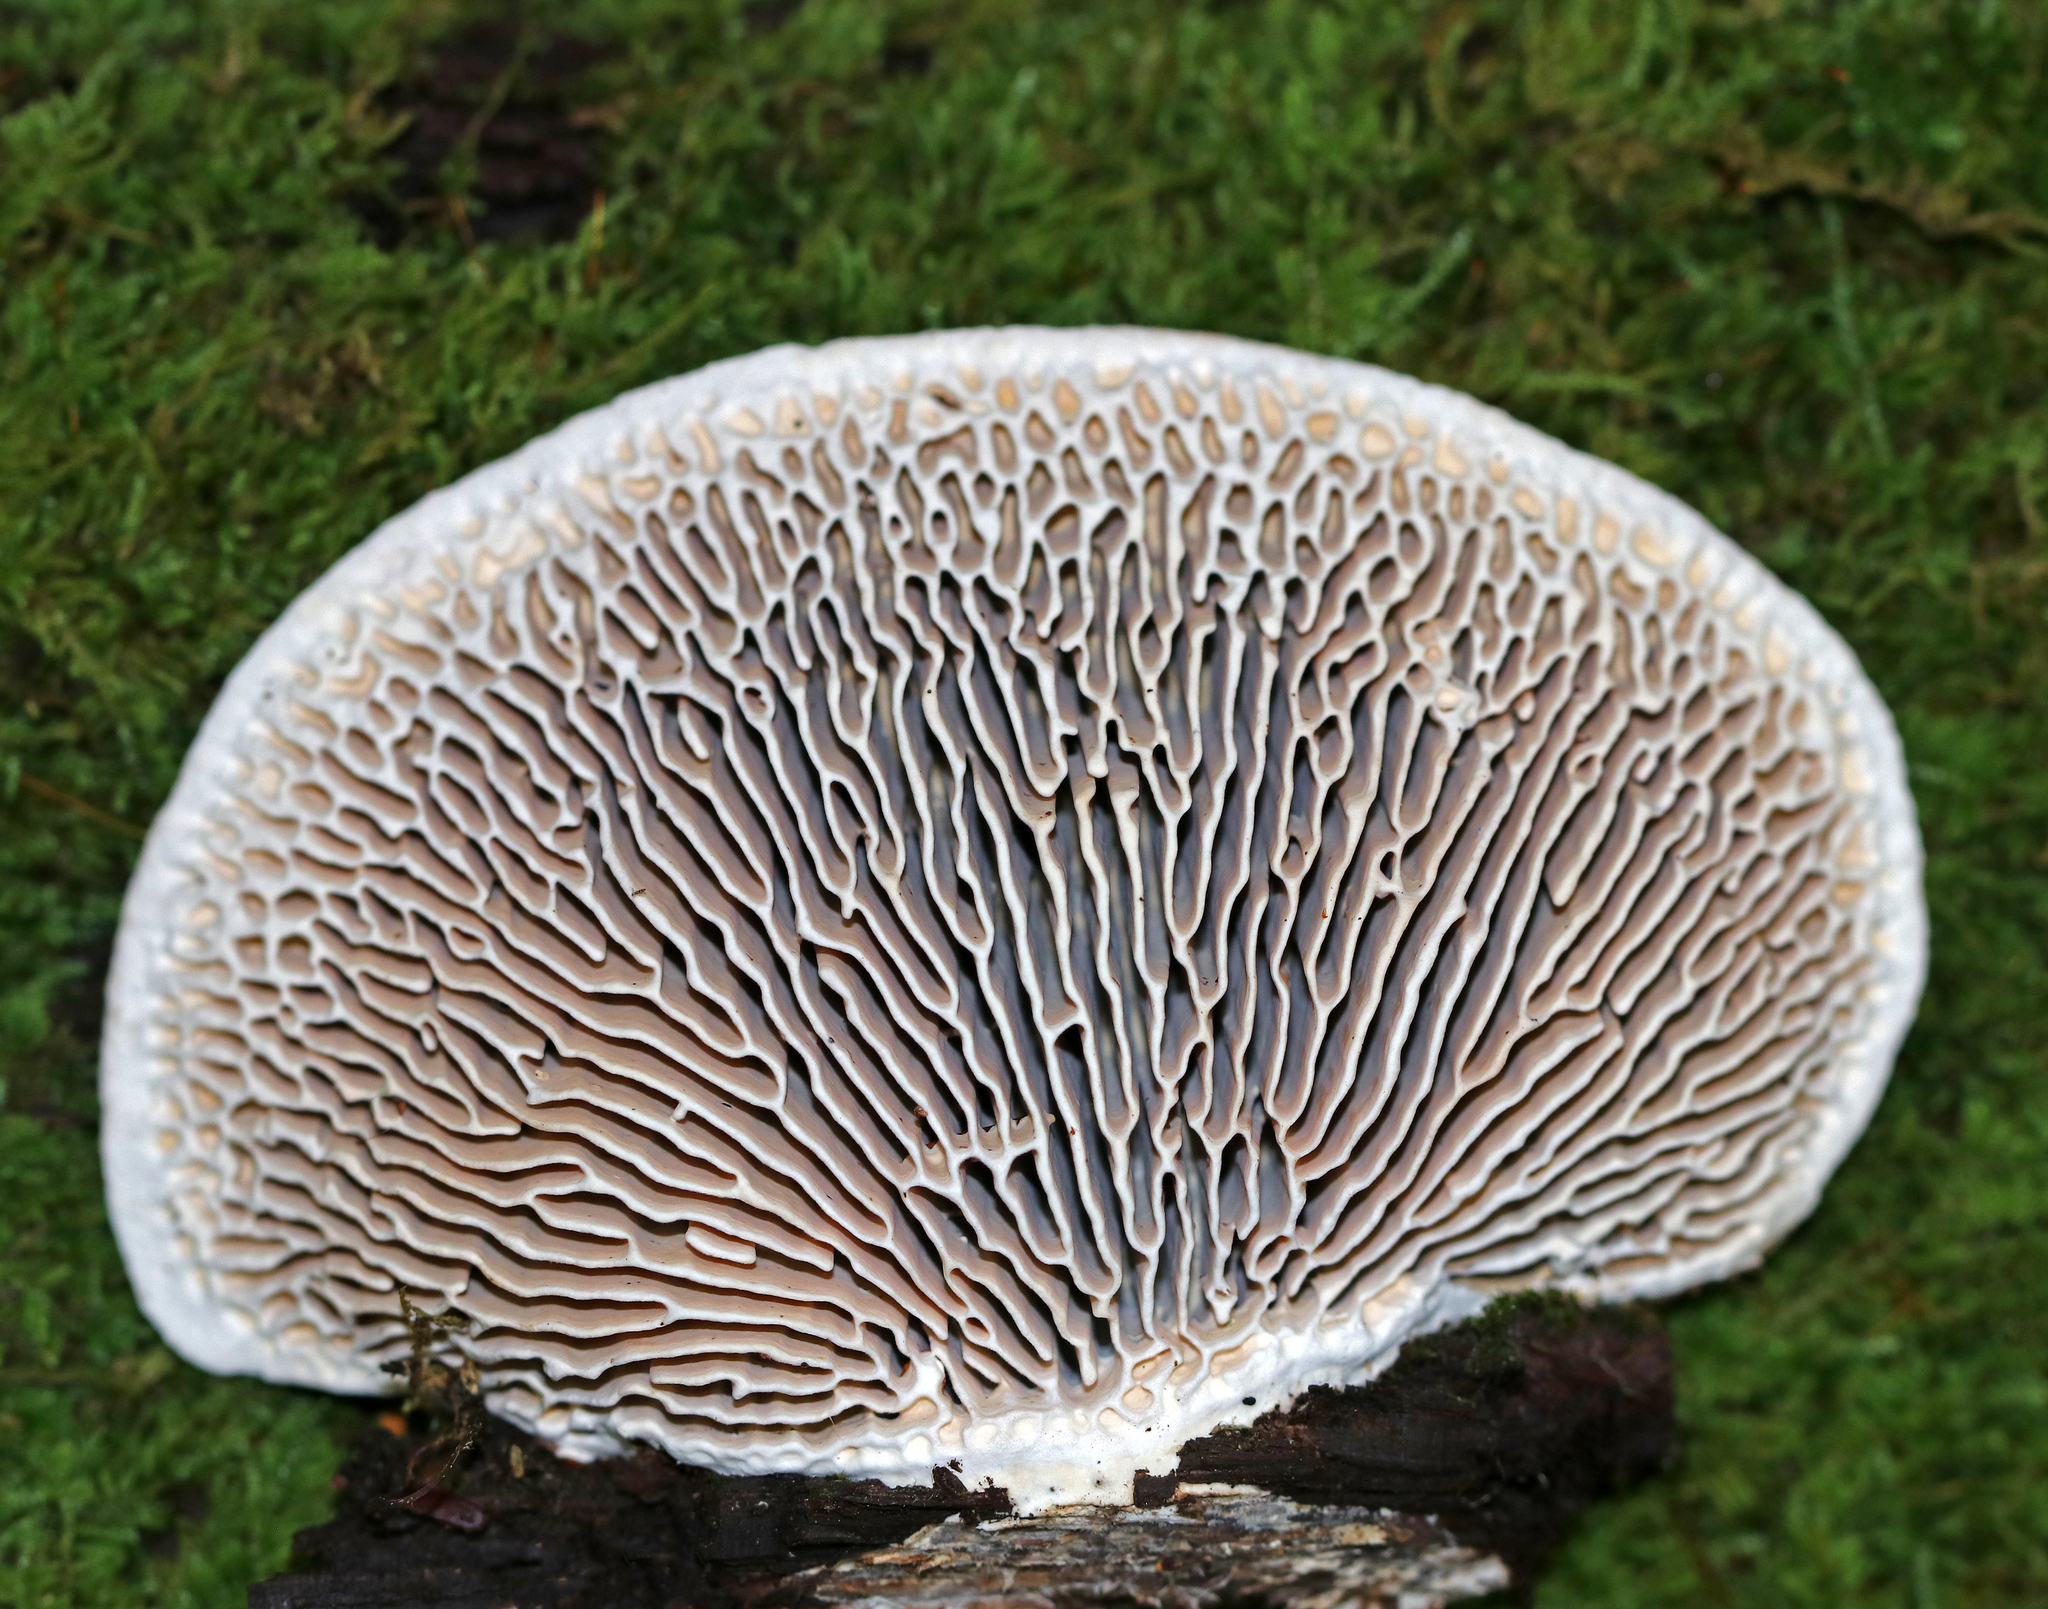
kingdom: Fungi
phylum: Basidiomycota
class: Agaricomycetes
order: Polyporales
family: Fomitopsidaceae
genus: Fomitopsis
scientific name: Fomitopsis
